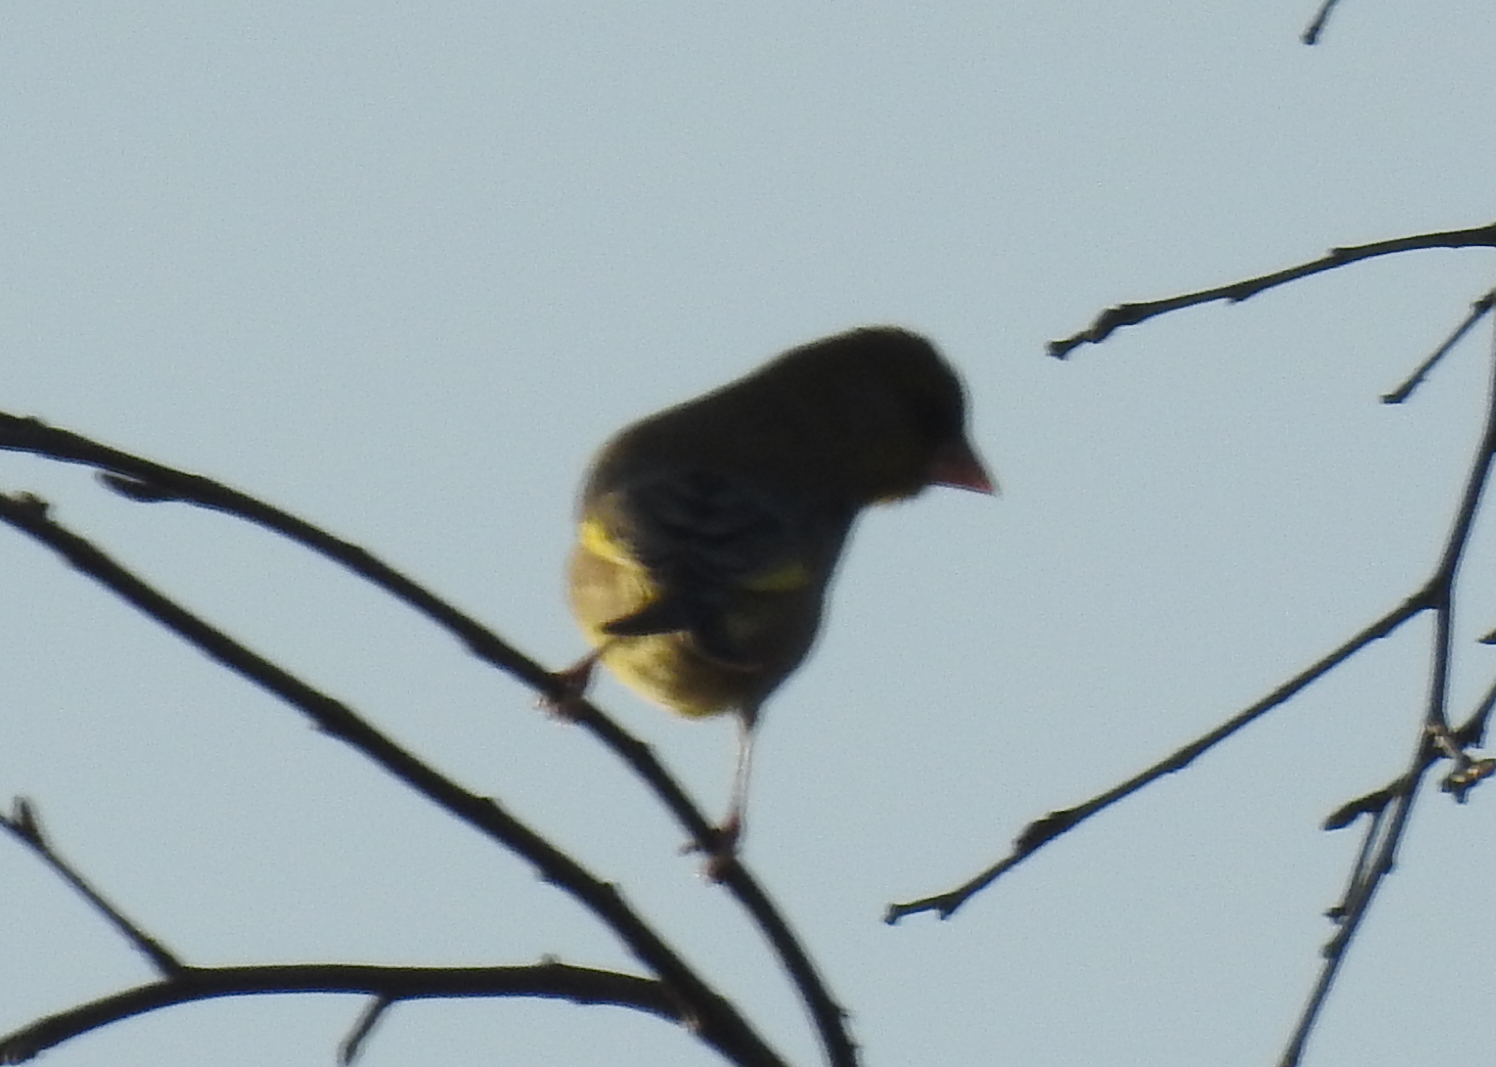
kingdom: Plantae
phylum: Tracheophyta
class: Liliopsida
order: Poales
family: Poaceae
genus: Chloris
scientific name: Chloris chloris
